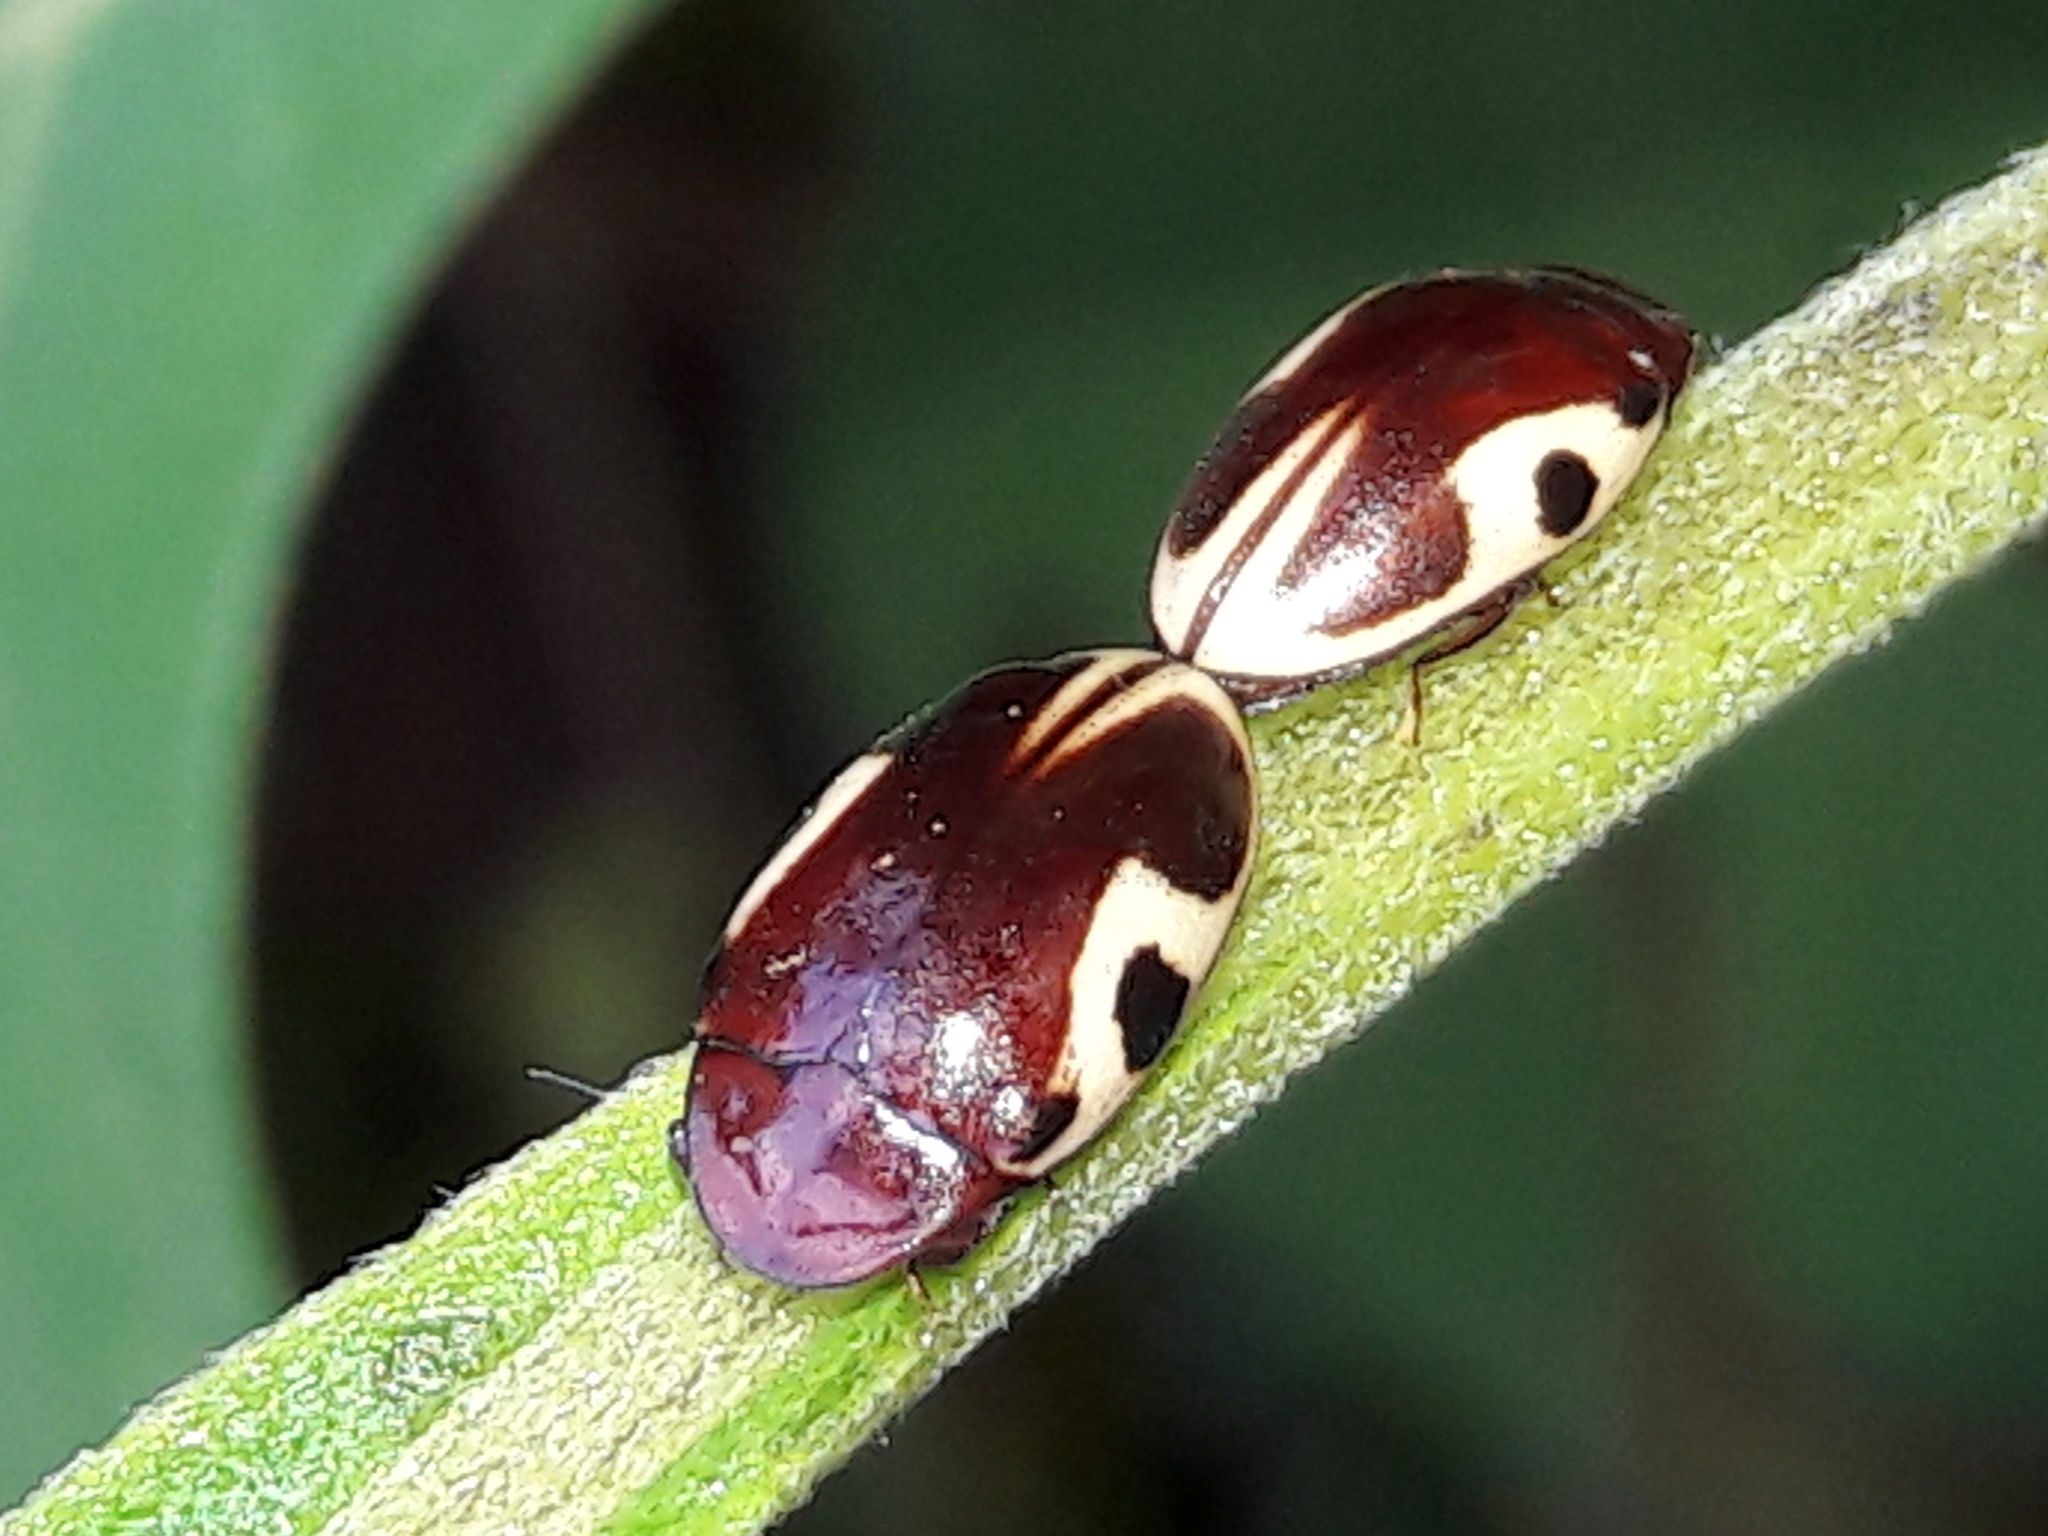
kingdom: Animalia
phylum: Arthropoda
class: Insecta
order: Coleoptera
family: Chelonariidae
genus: Chelonarium
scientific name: Chelonarium
